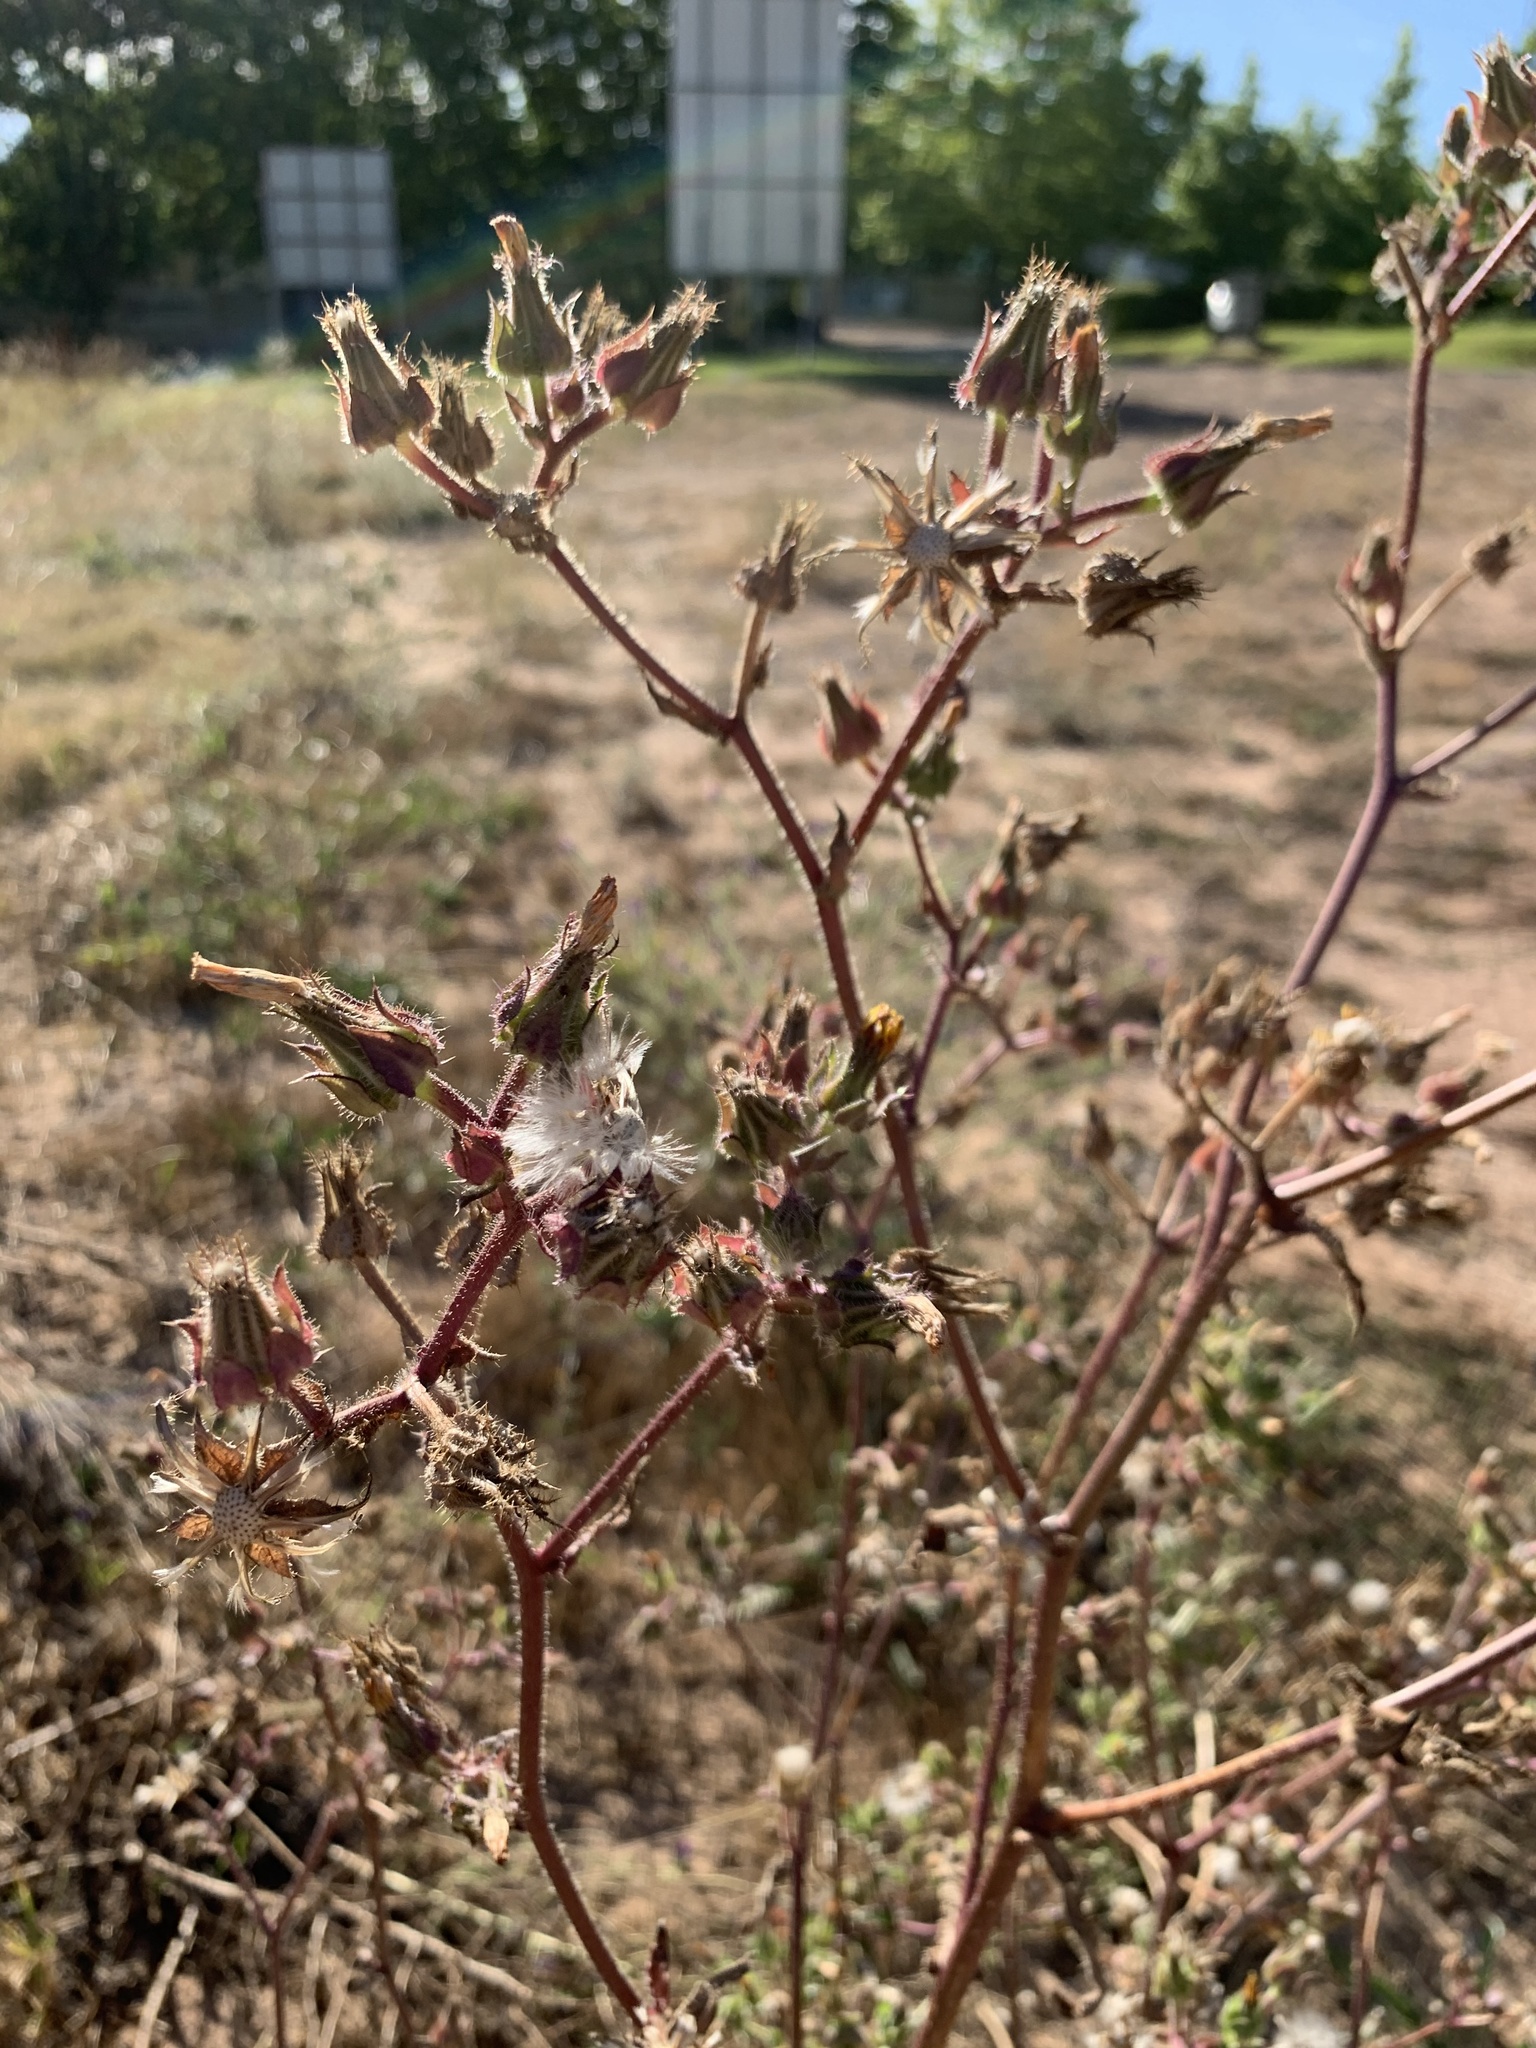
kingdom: Plantae
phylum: Tracheophyta
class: Magnoliopsida
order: Asterales
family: Asteraceae
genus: Helminthotheca
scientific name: Helminthotheca echioides
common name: Ox-tongue
